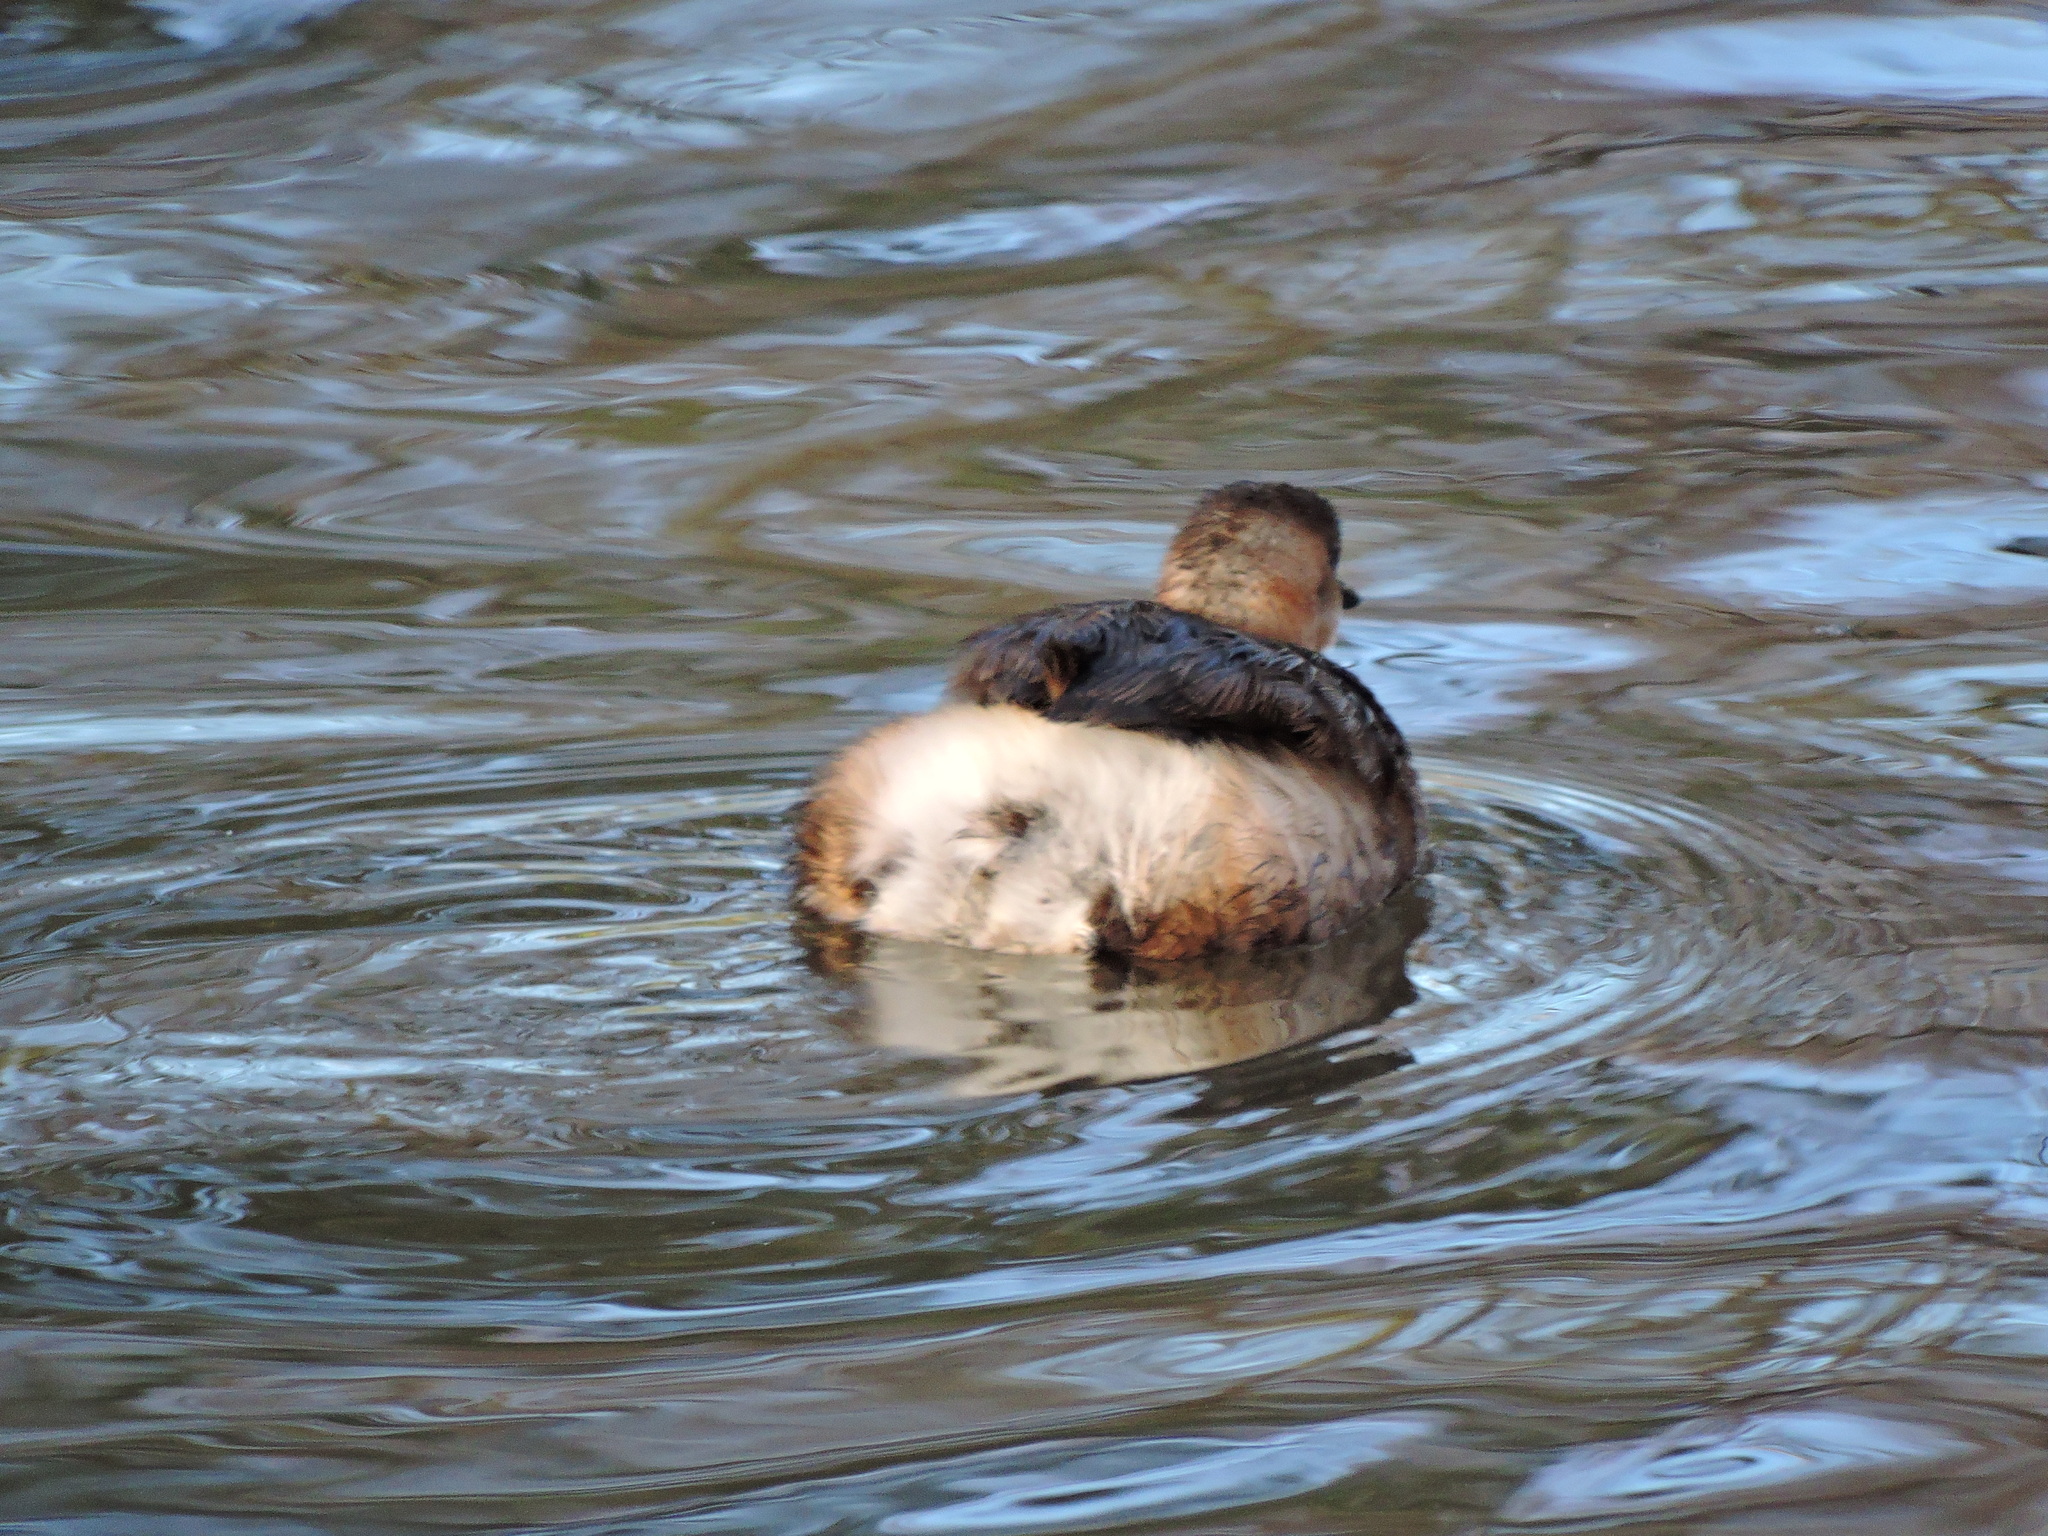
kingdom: Animalia
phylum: Chordata
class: Aves
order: Podicipediformes
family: Podicipedidae
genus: Tachybaptus
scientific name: Tachybaptus ruficollis
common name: Little grebe
